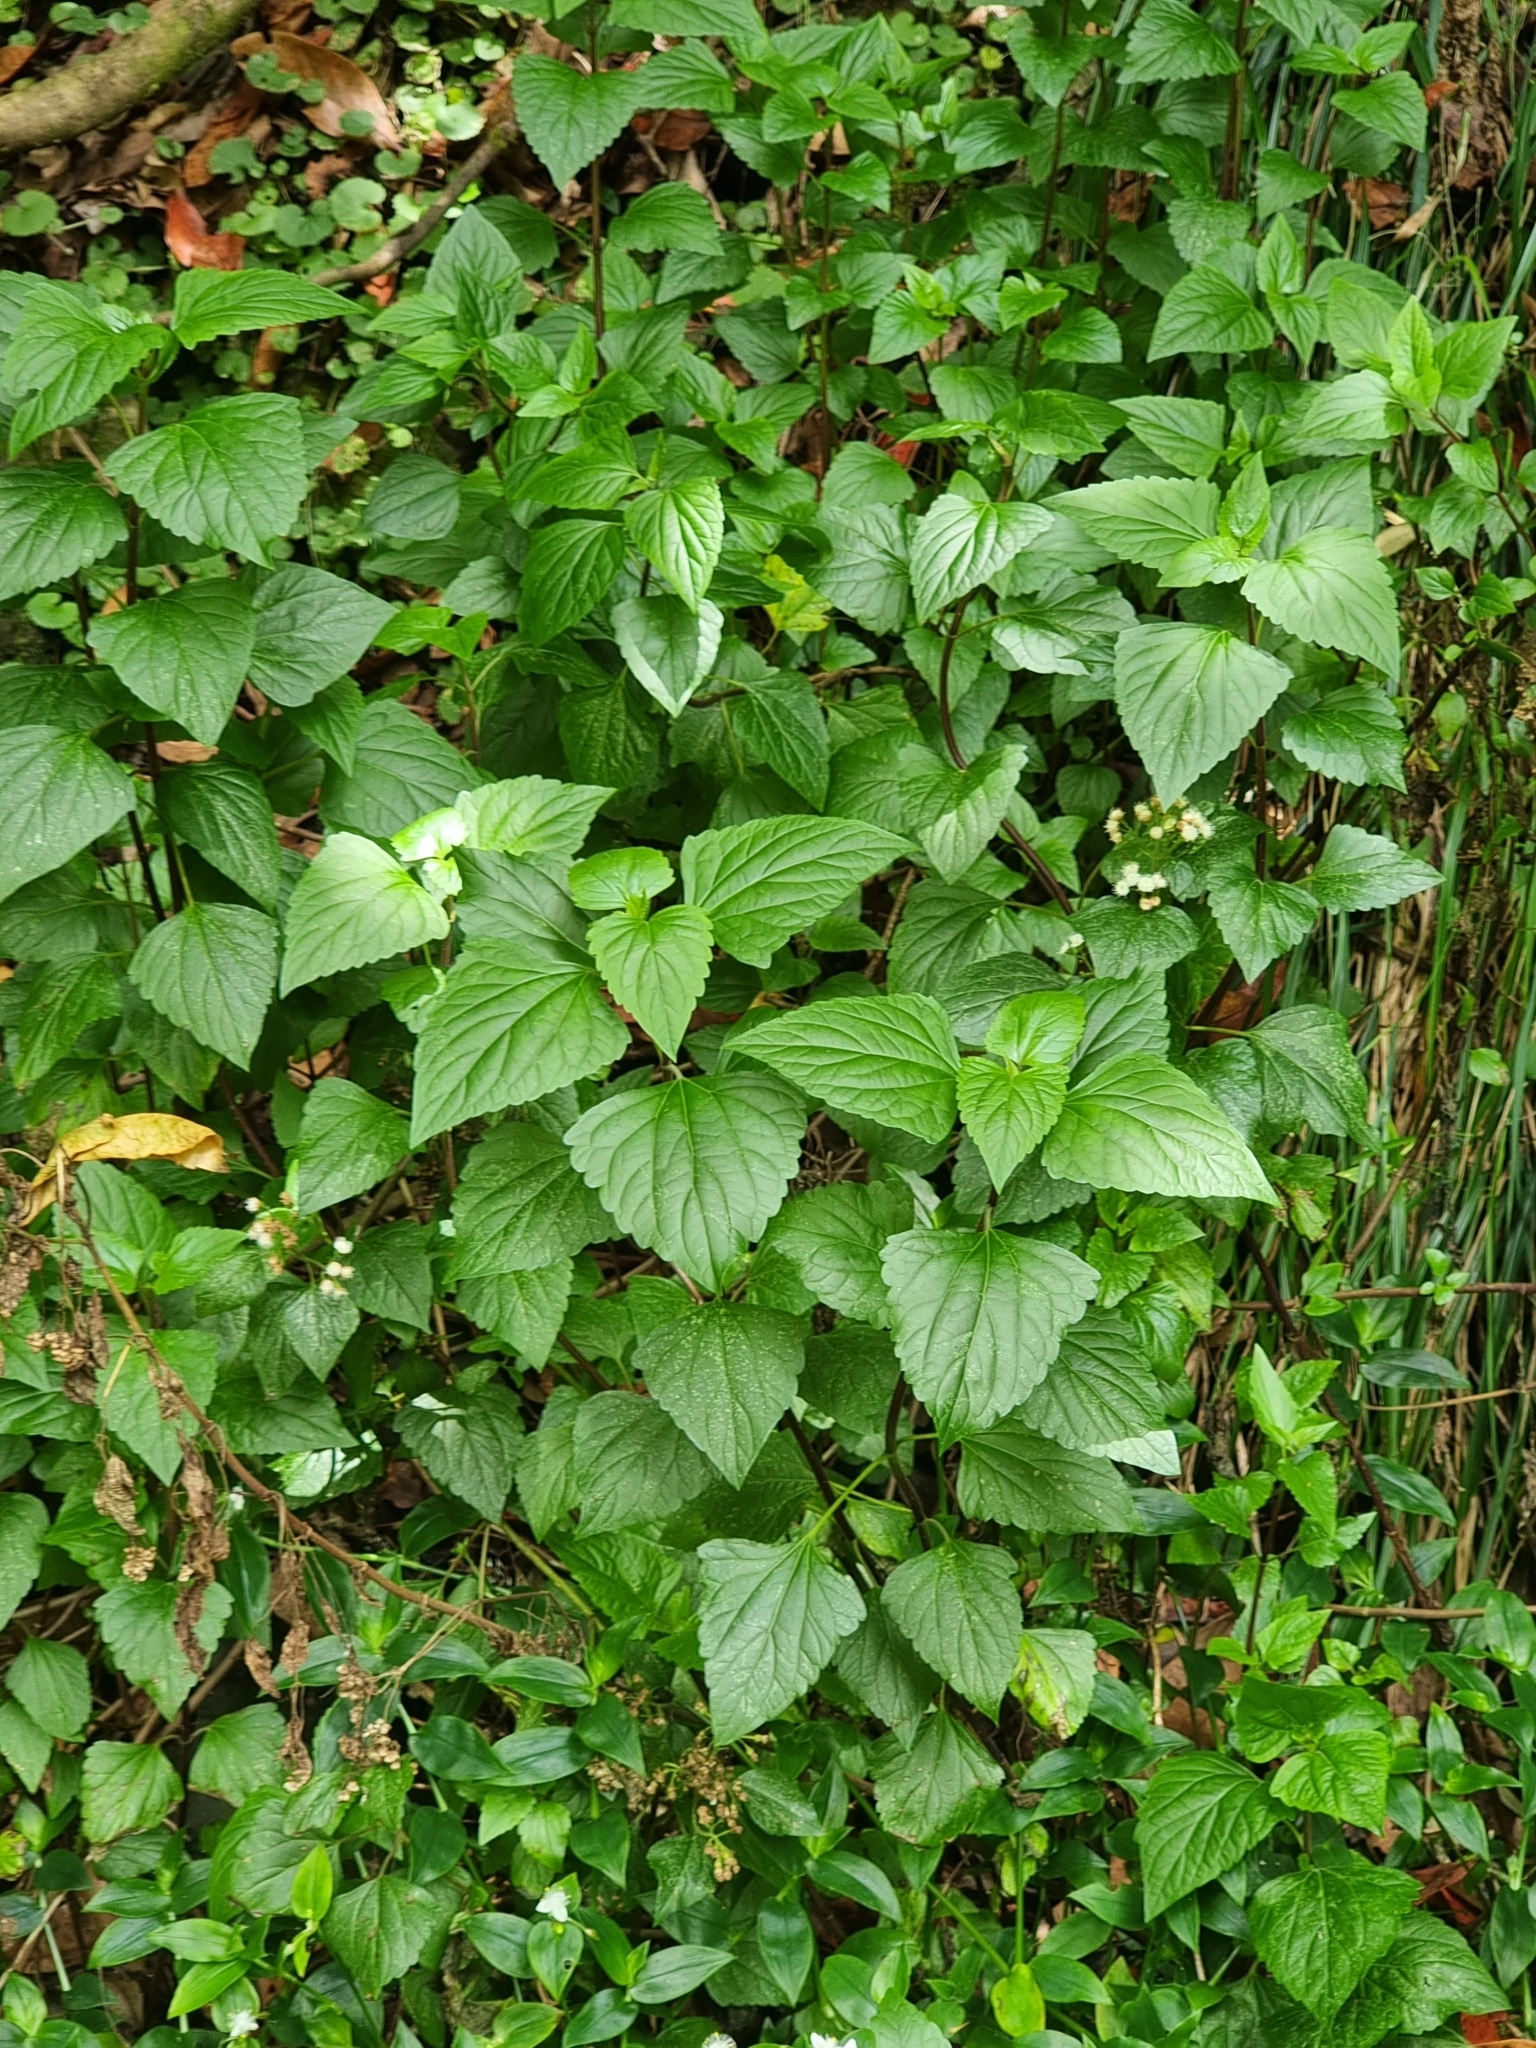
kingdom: Plantae
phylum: Tracheophyta
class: Magnoliopsida
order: Asterales
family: Asteraceae
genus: Ageratina
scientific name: Ageratina adenophora
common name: Sticky snakeroot
